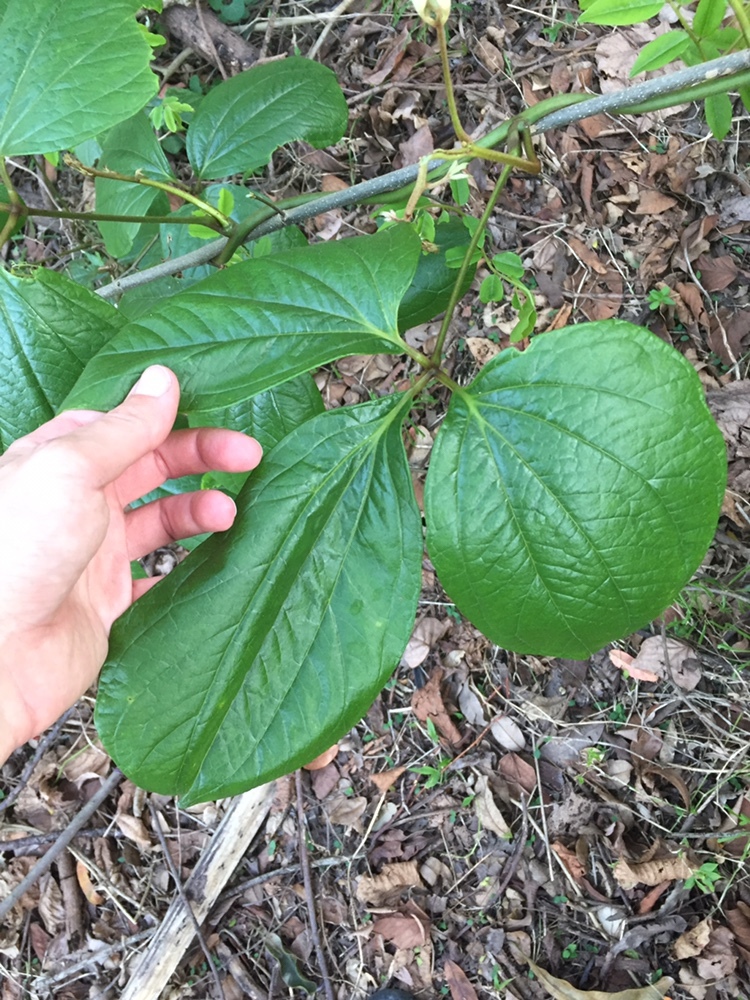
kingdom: Plantae
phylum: Tracheophyta
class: Liliopsida
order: Dioscoreales
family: Dioscoreaceae
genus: Dioscorea
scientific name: Dioscorea dregeana
